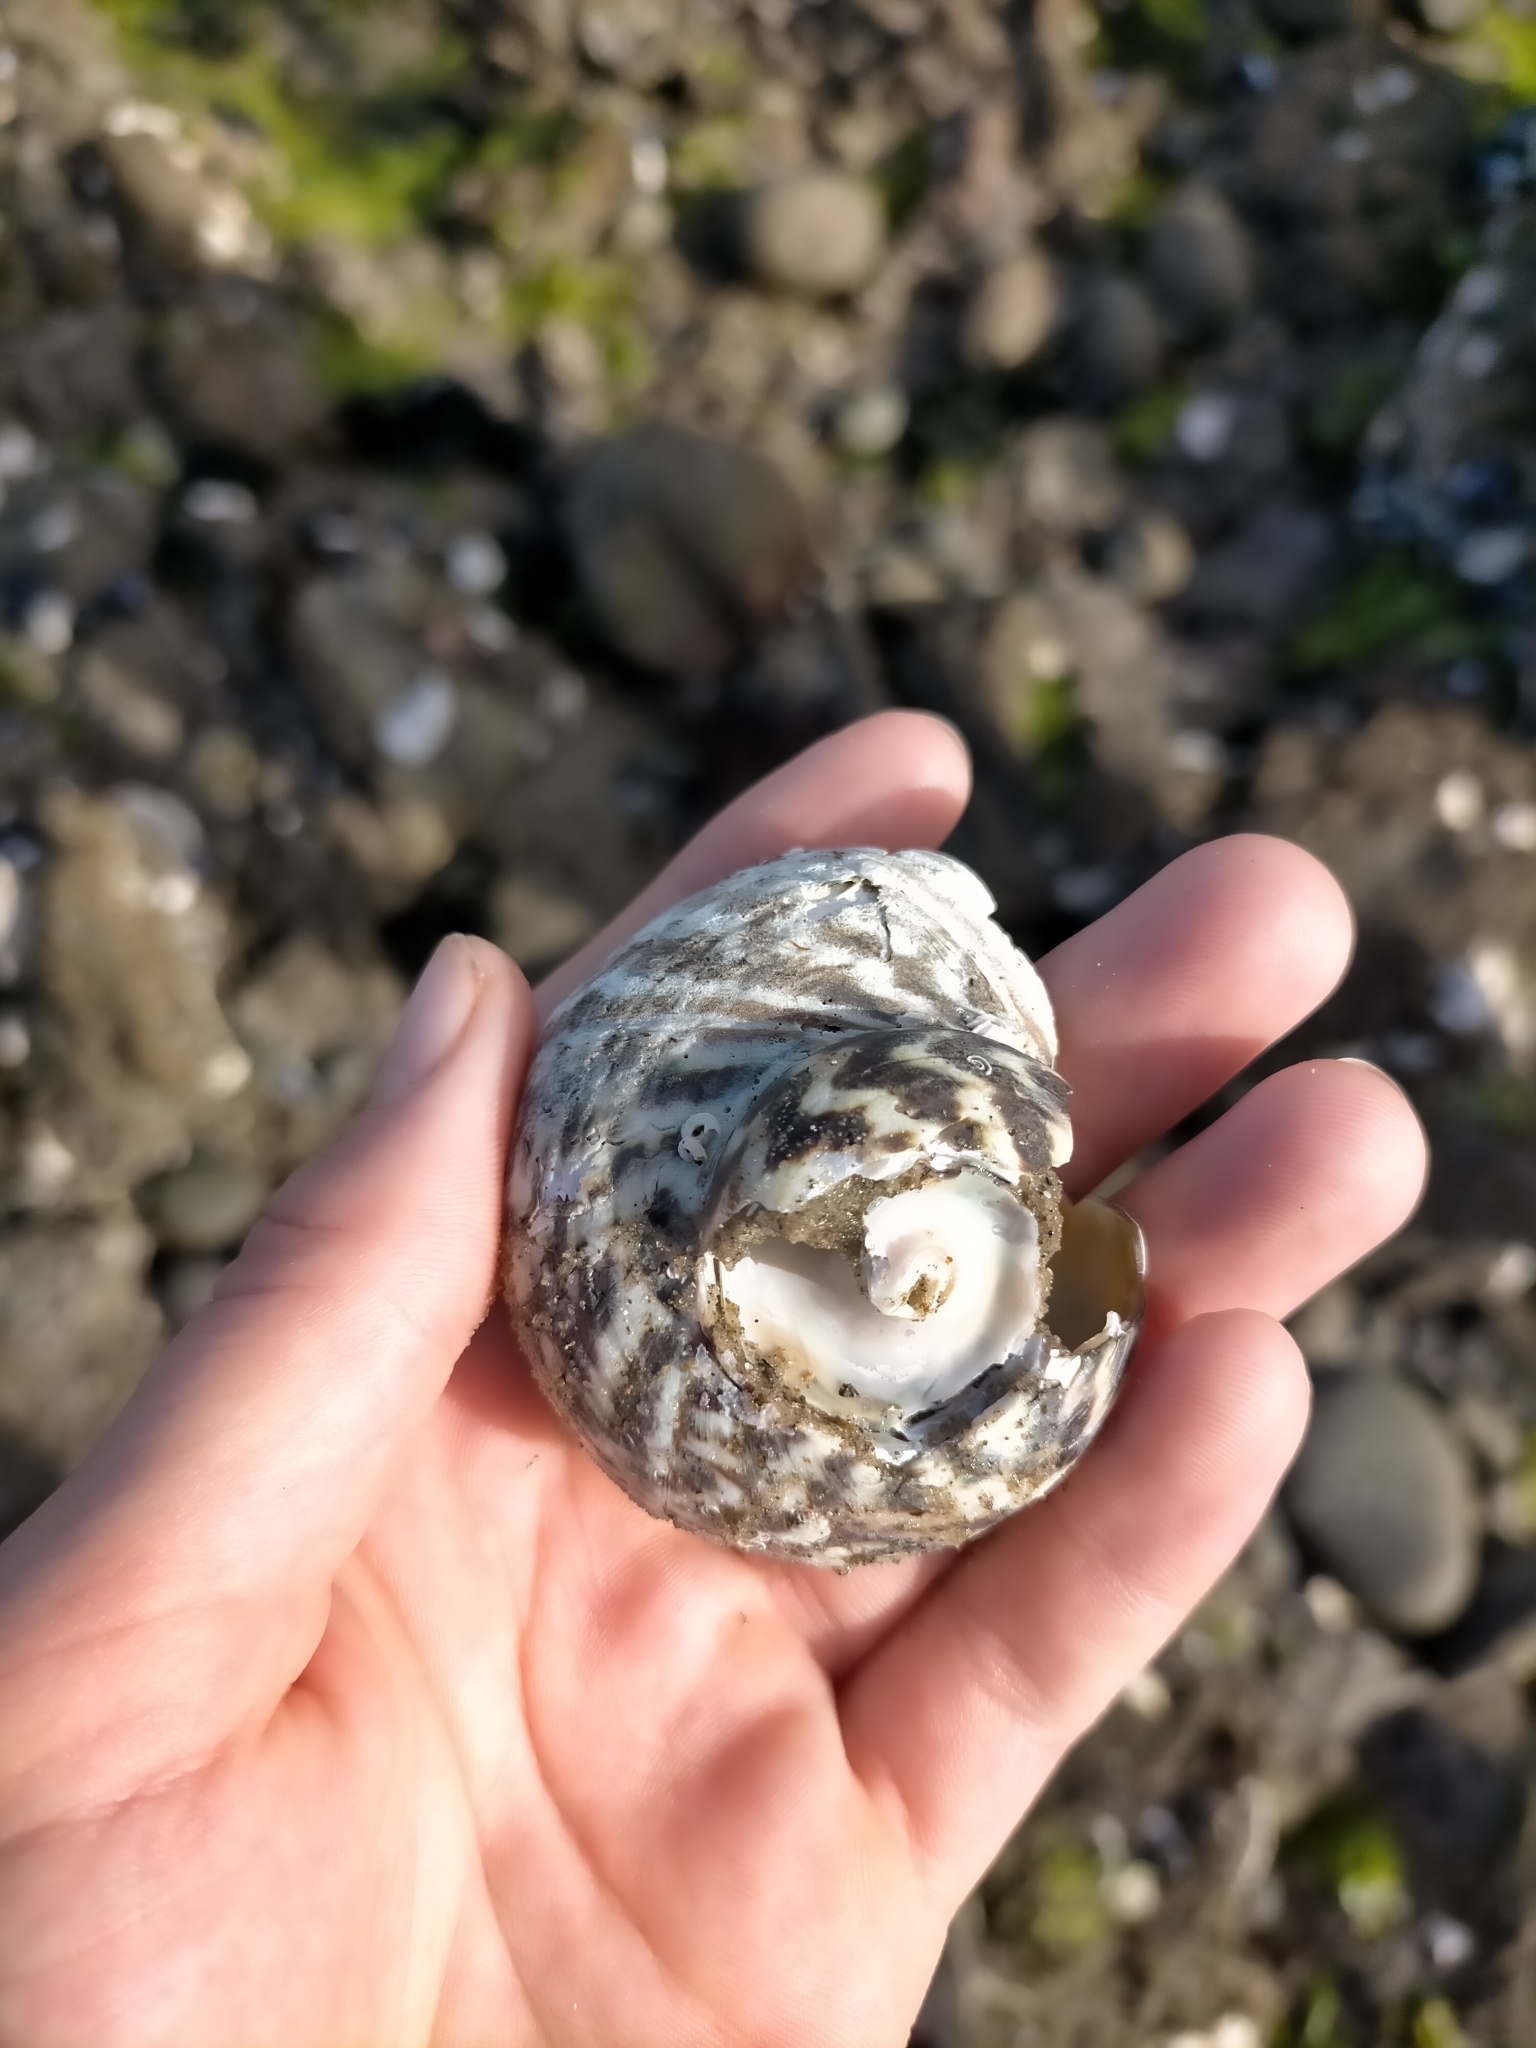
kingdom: Animalia
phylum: Mollusca
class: Gastropoda
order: Trochida
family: Turbinidae
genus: Lunella
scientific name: Lunella undulata
